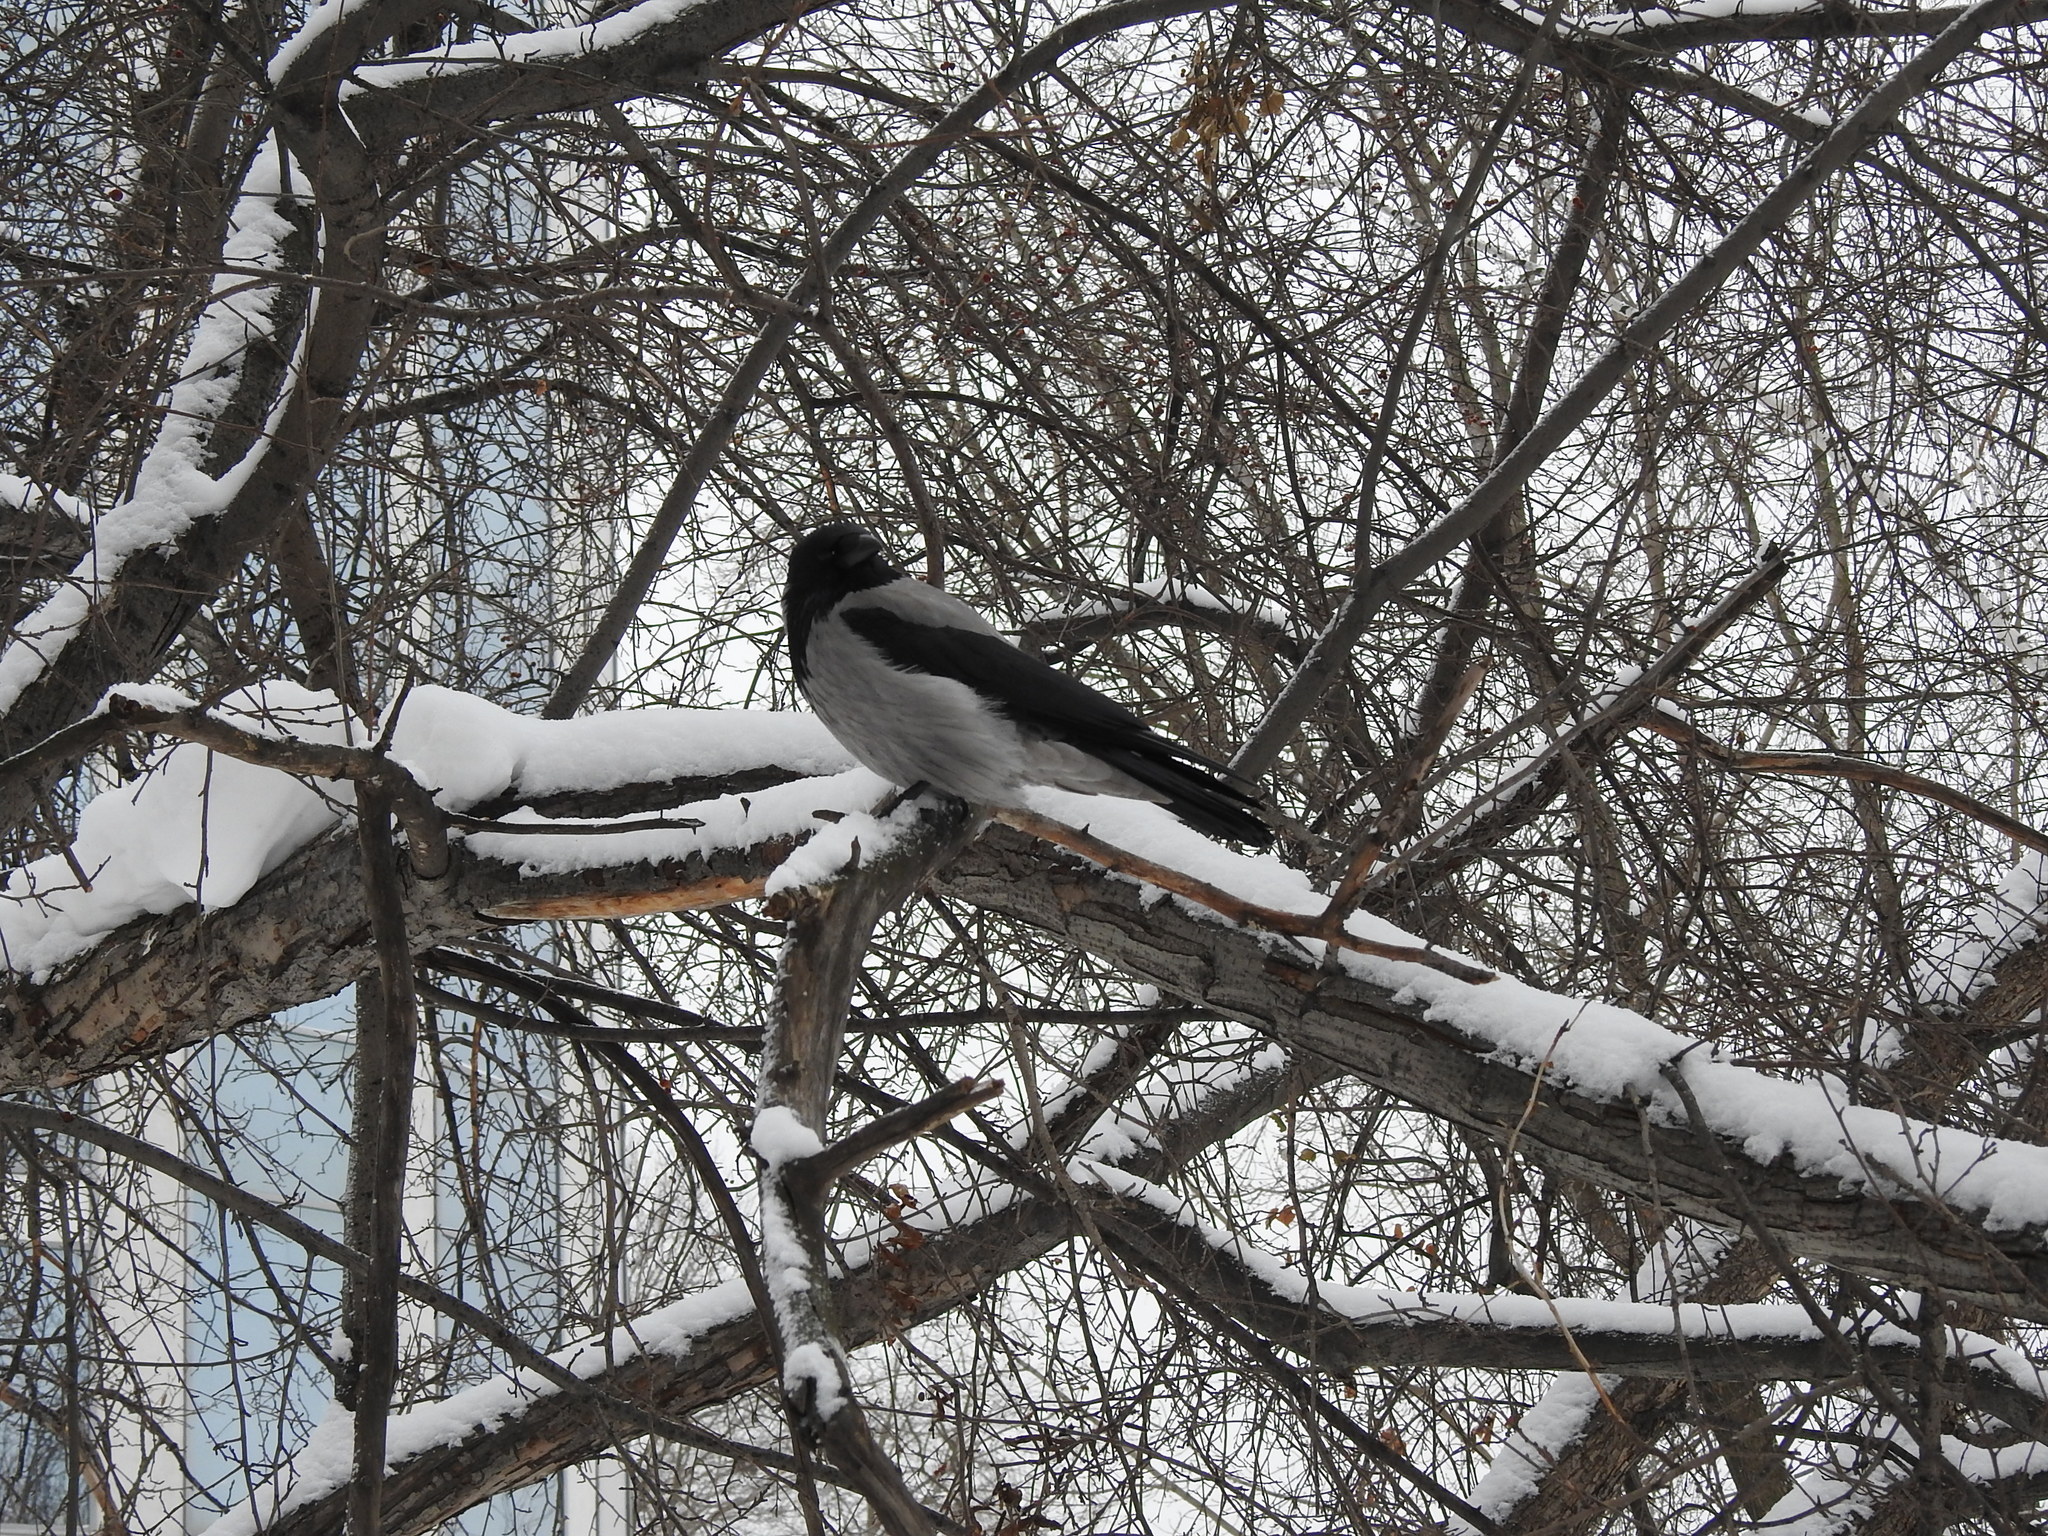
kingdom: Animalia
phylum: Chordata
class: Aves
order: Passeriformes
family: Corvidae
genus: Corvus
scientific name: Corvus cornix
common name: Hooded crow
